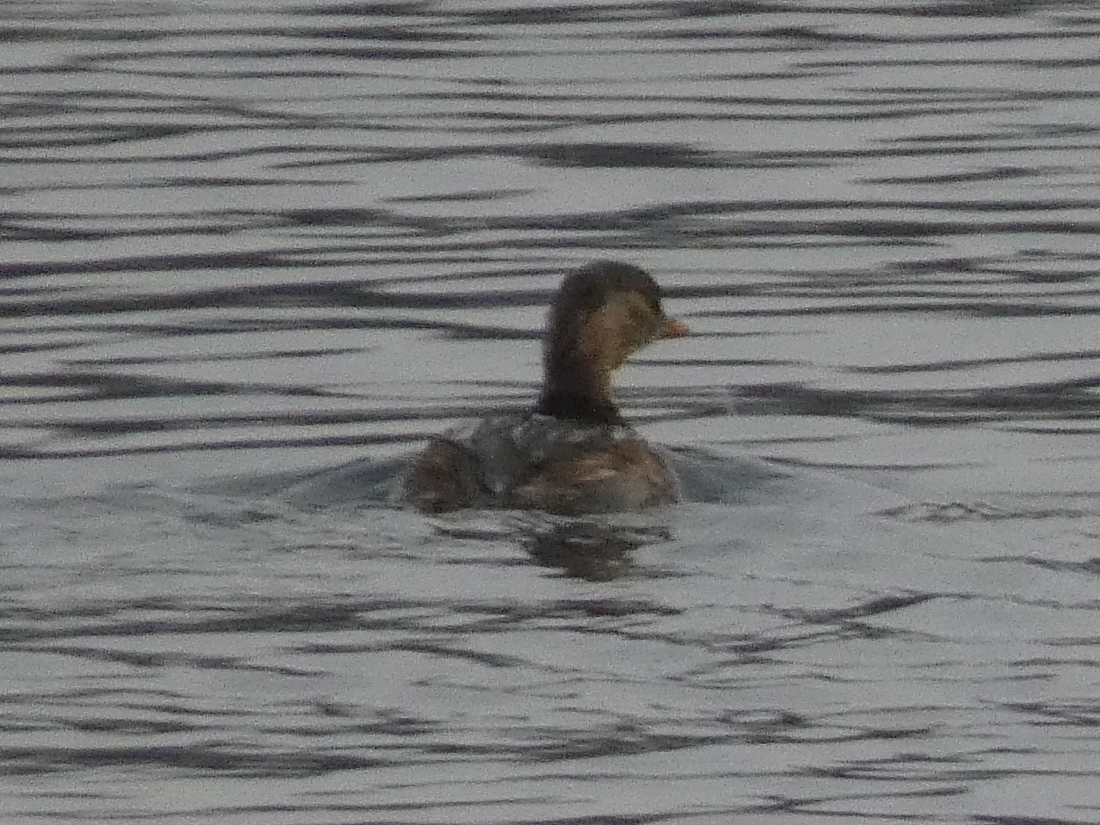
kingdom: Animalia
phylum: Chordata
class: Aves
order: Podicipediformes
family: Podicipedidae
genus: Tachybaptus
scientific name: Tachybaptus ruficollis
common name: Little grebe
